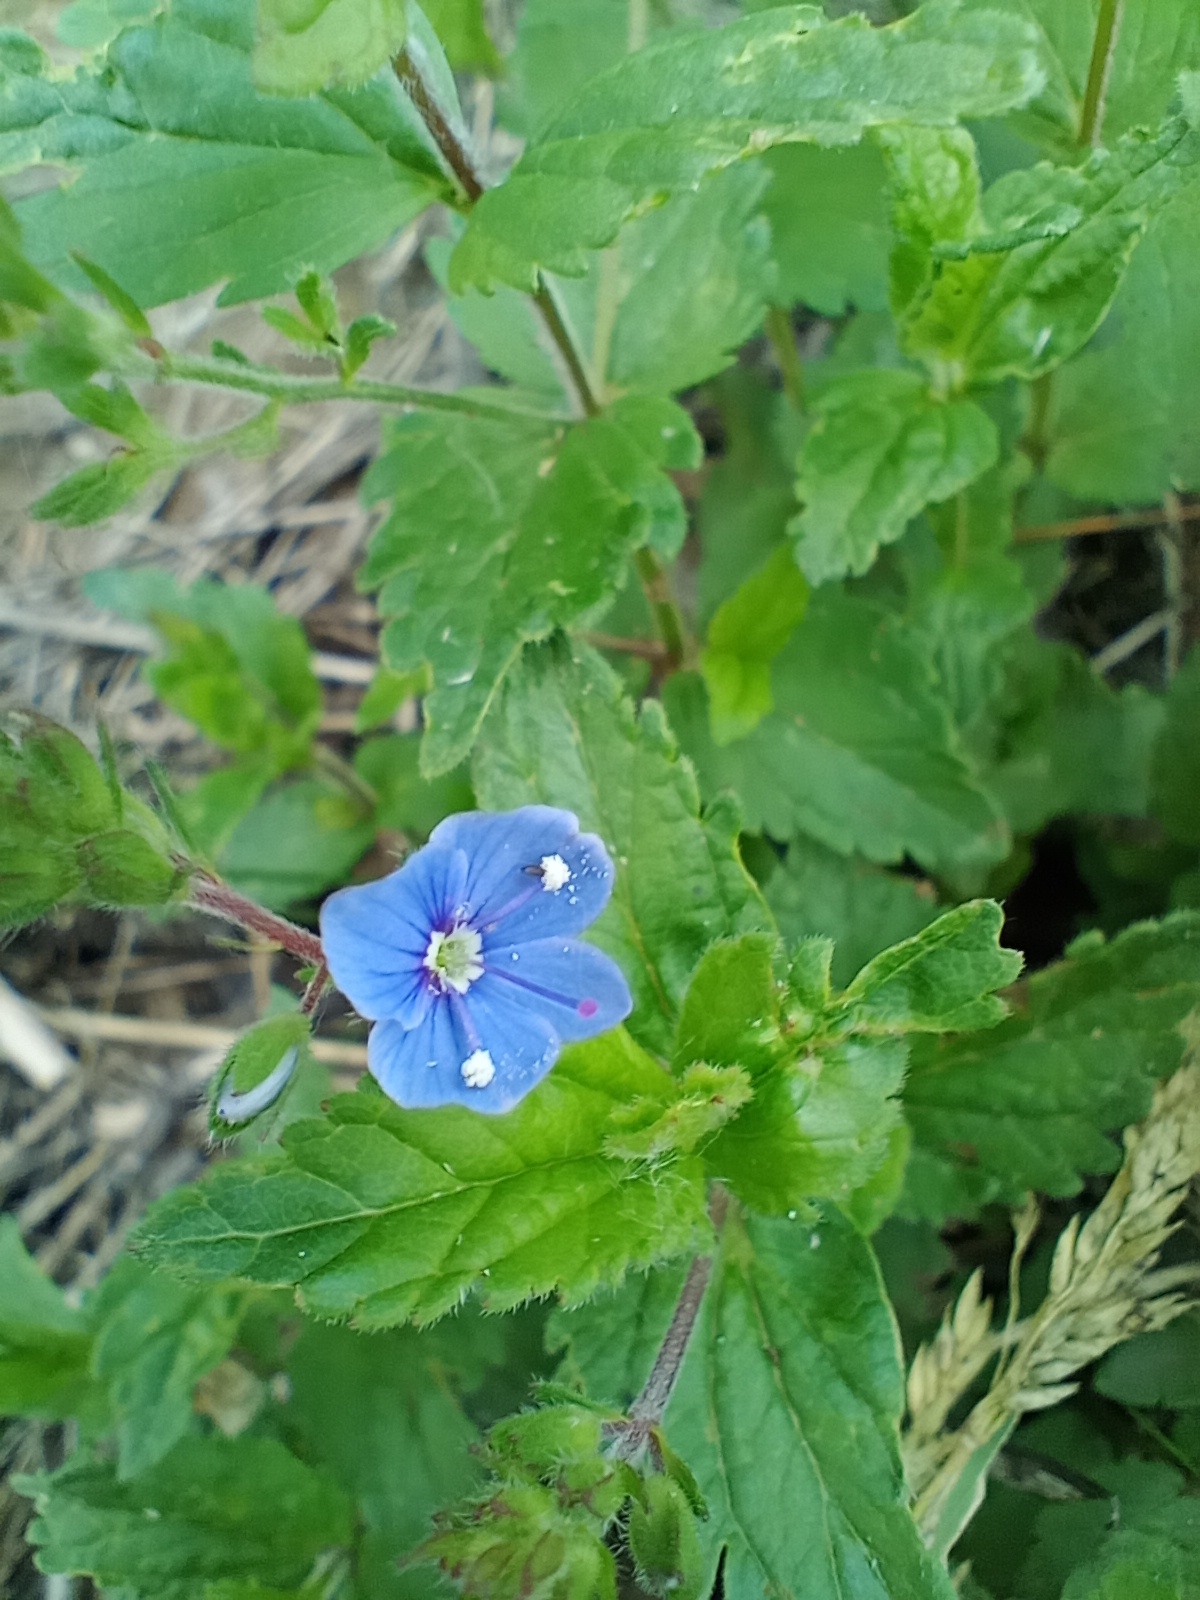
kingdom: Plantae
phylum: Tracheophyta
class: Magnoliopsida
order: Lamiales
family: Plantaginaceae
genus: Veronica
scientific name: Veronica chamaedrys
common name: Germander speedwell
